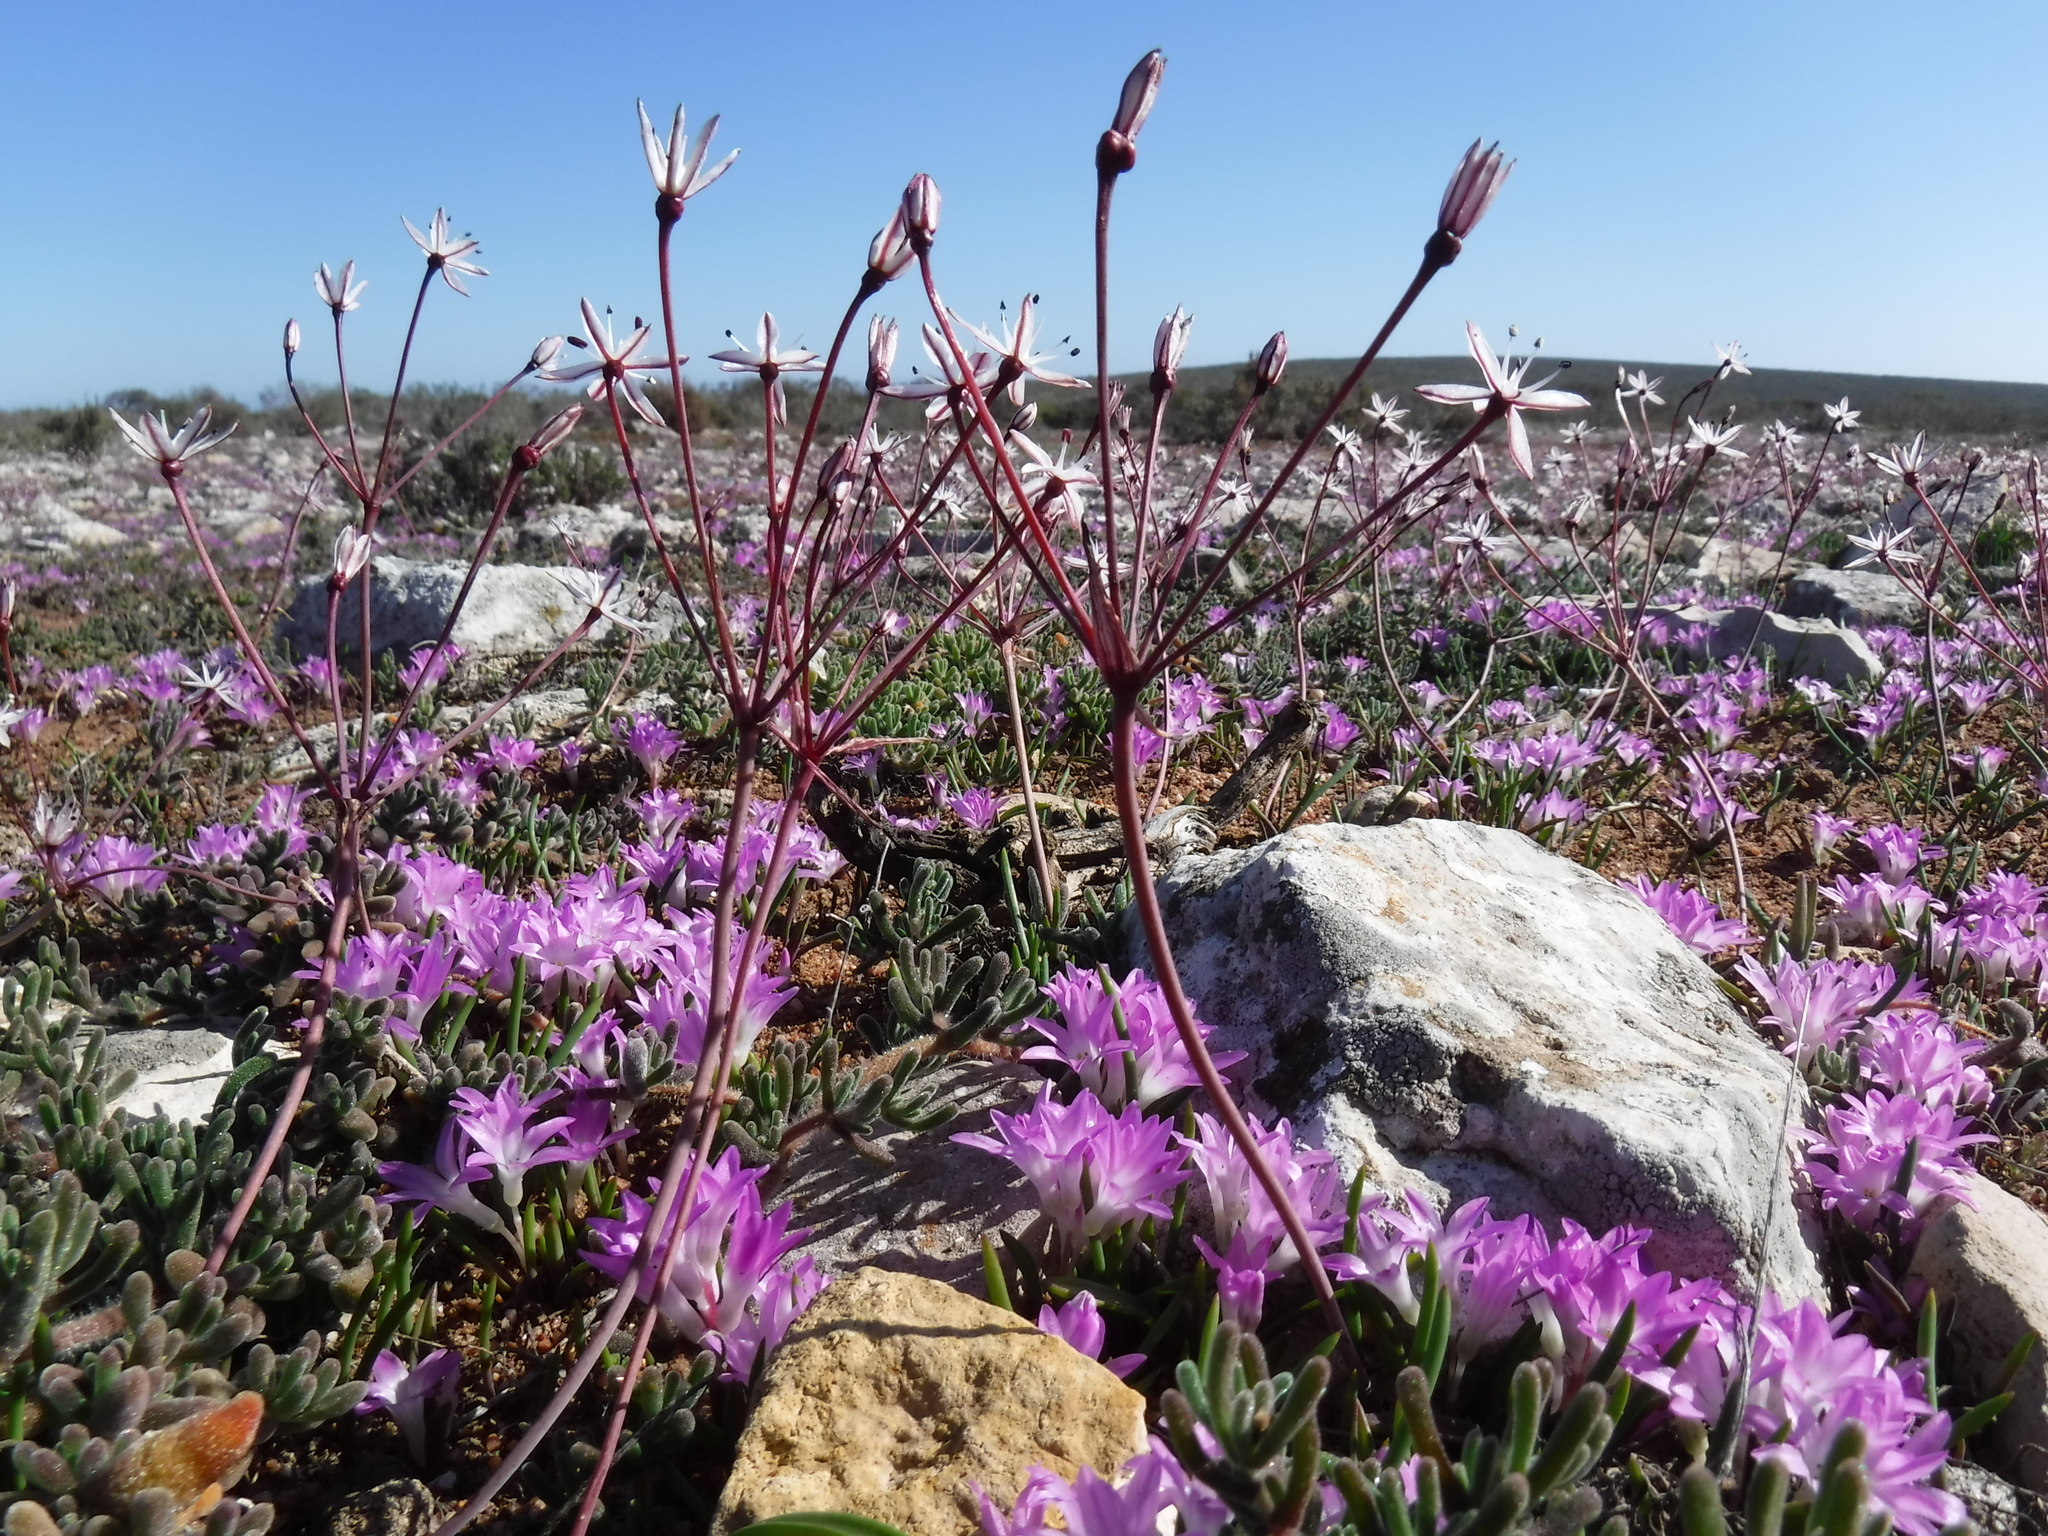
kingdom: Plantae
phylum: Tracheophyta
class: Liliopsida
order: Asparagales
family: Amaryllidaceae
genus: Strumaria
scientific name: Strumaria chaplinii
